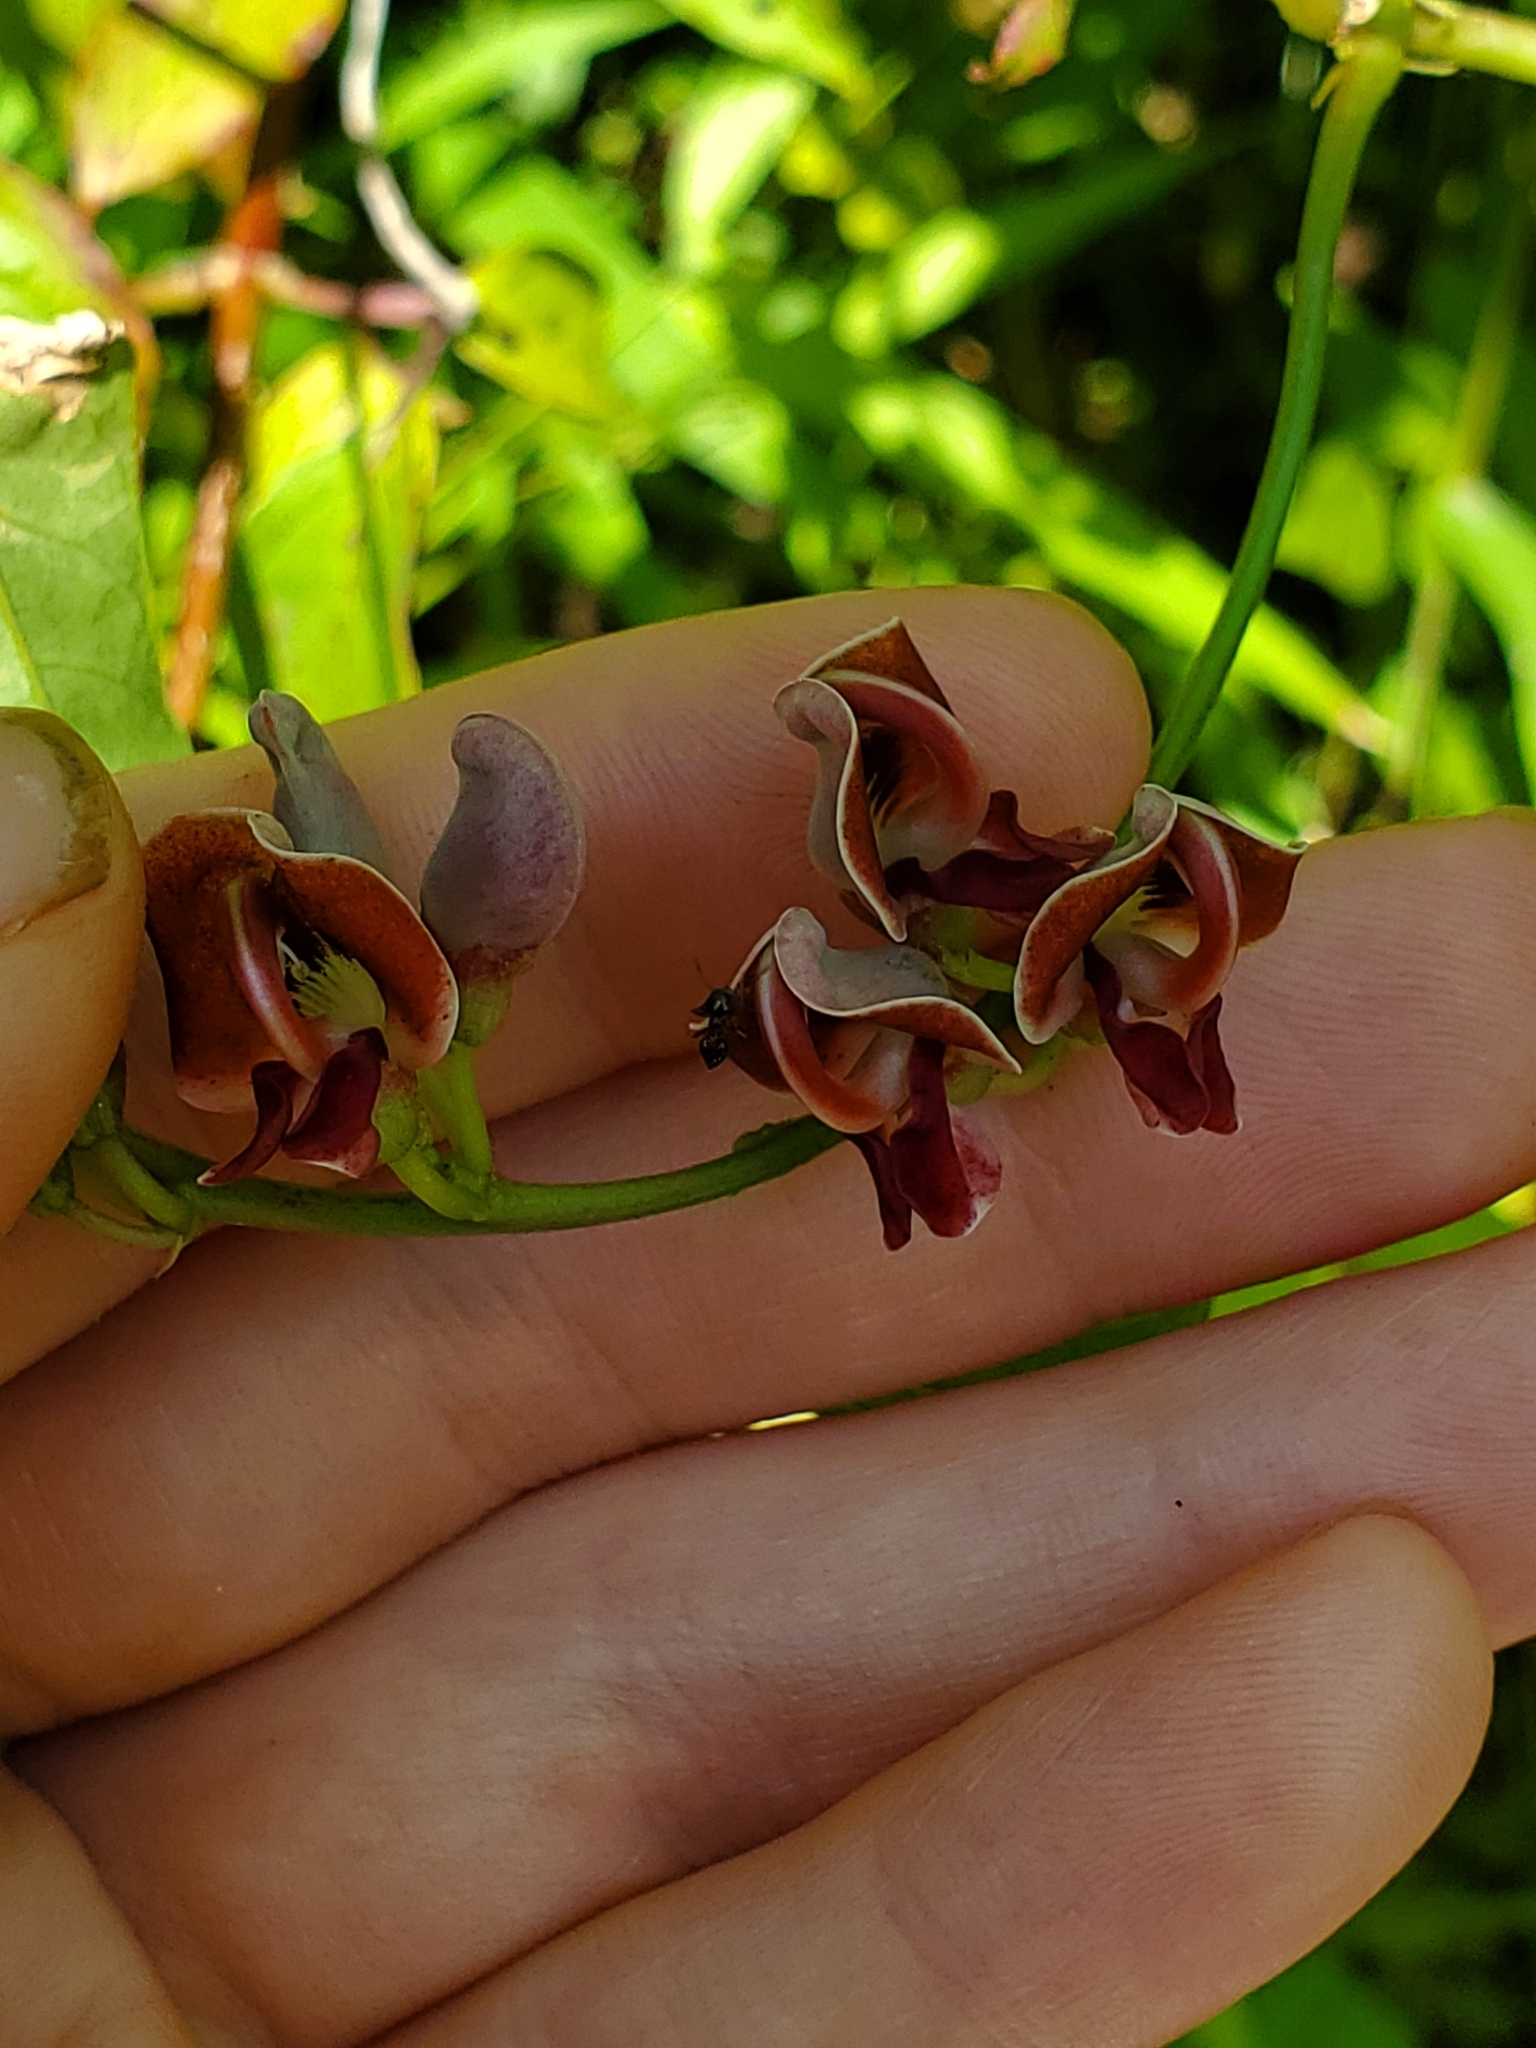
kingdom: Plantae
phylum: Tracheophyta
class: Magnoliopsida
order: Fabales
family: Fabaceae
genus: Apios
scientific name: Apios americana
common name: American potato-bean
